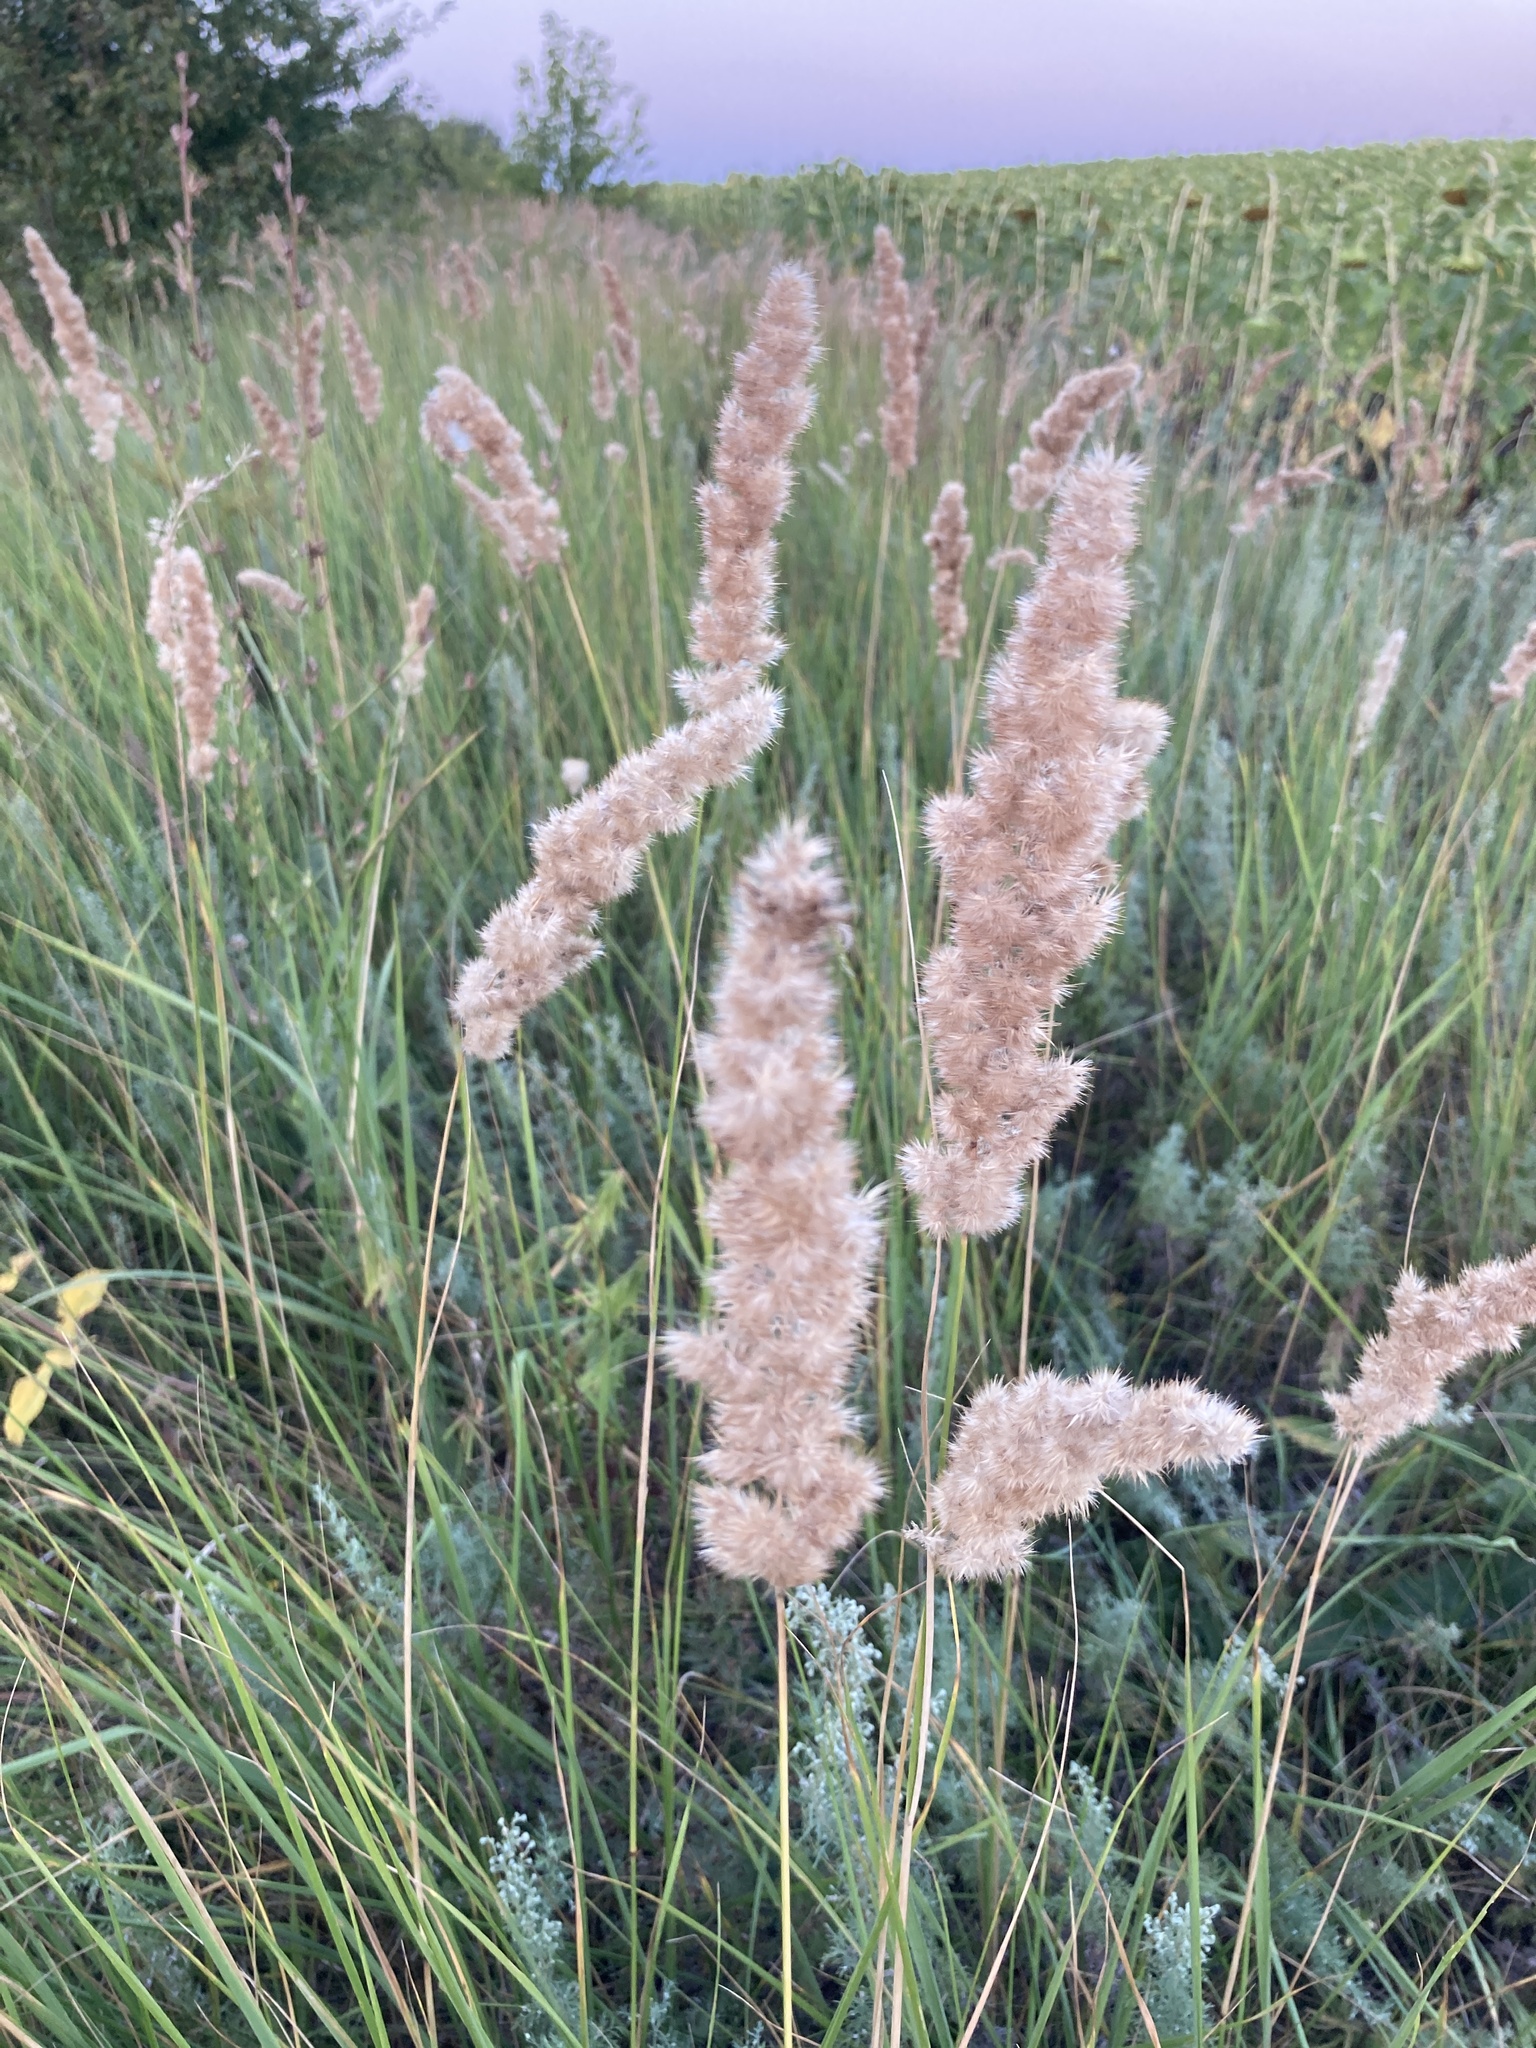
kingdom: Plantae
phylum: Tracheophyta
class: Liliopsida
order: Poales
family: Poaceae
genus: Calamagrostis
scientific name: Calamagrostis epigejos
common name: Wood small-reed
